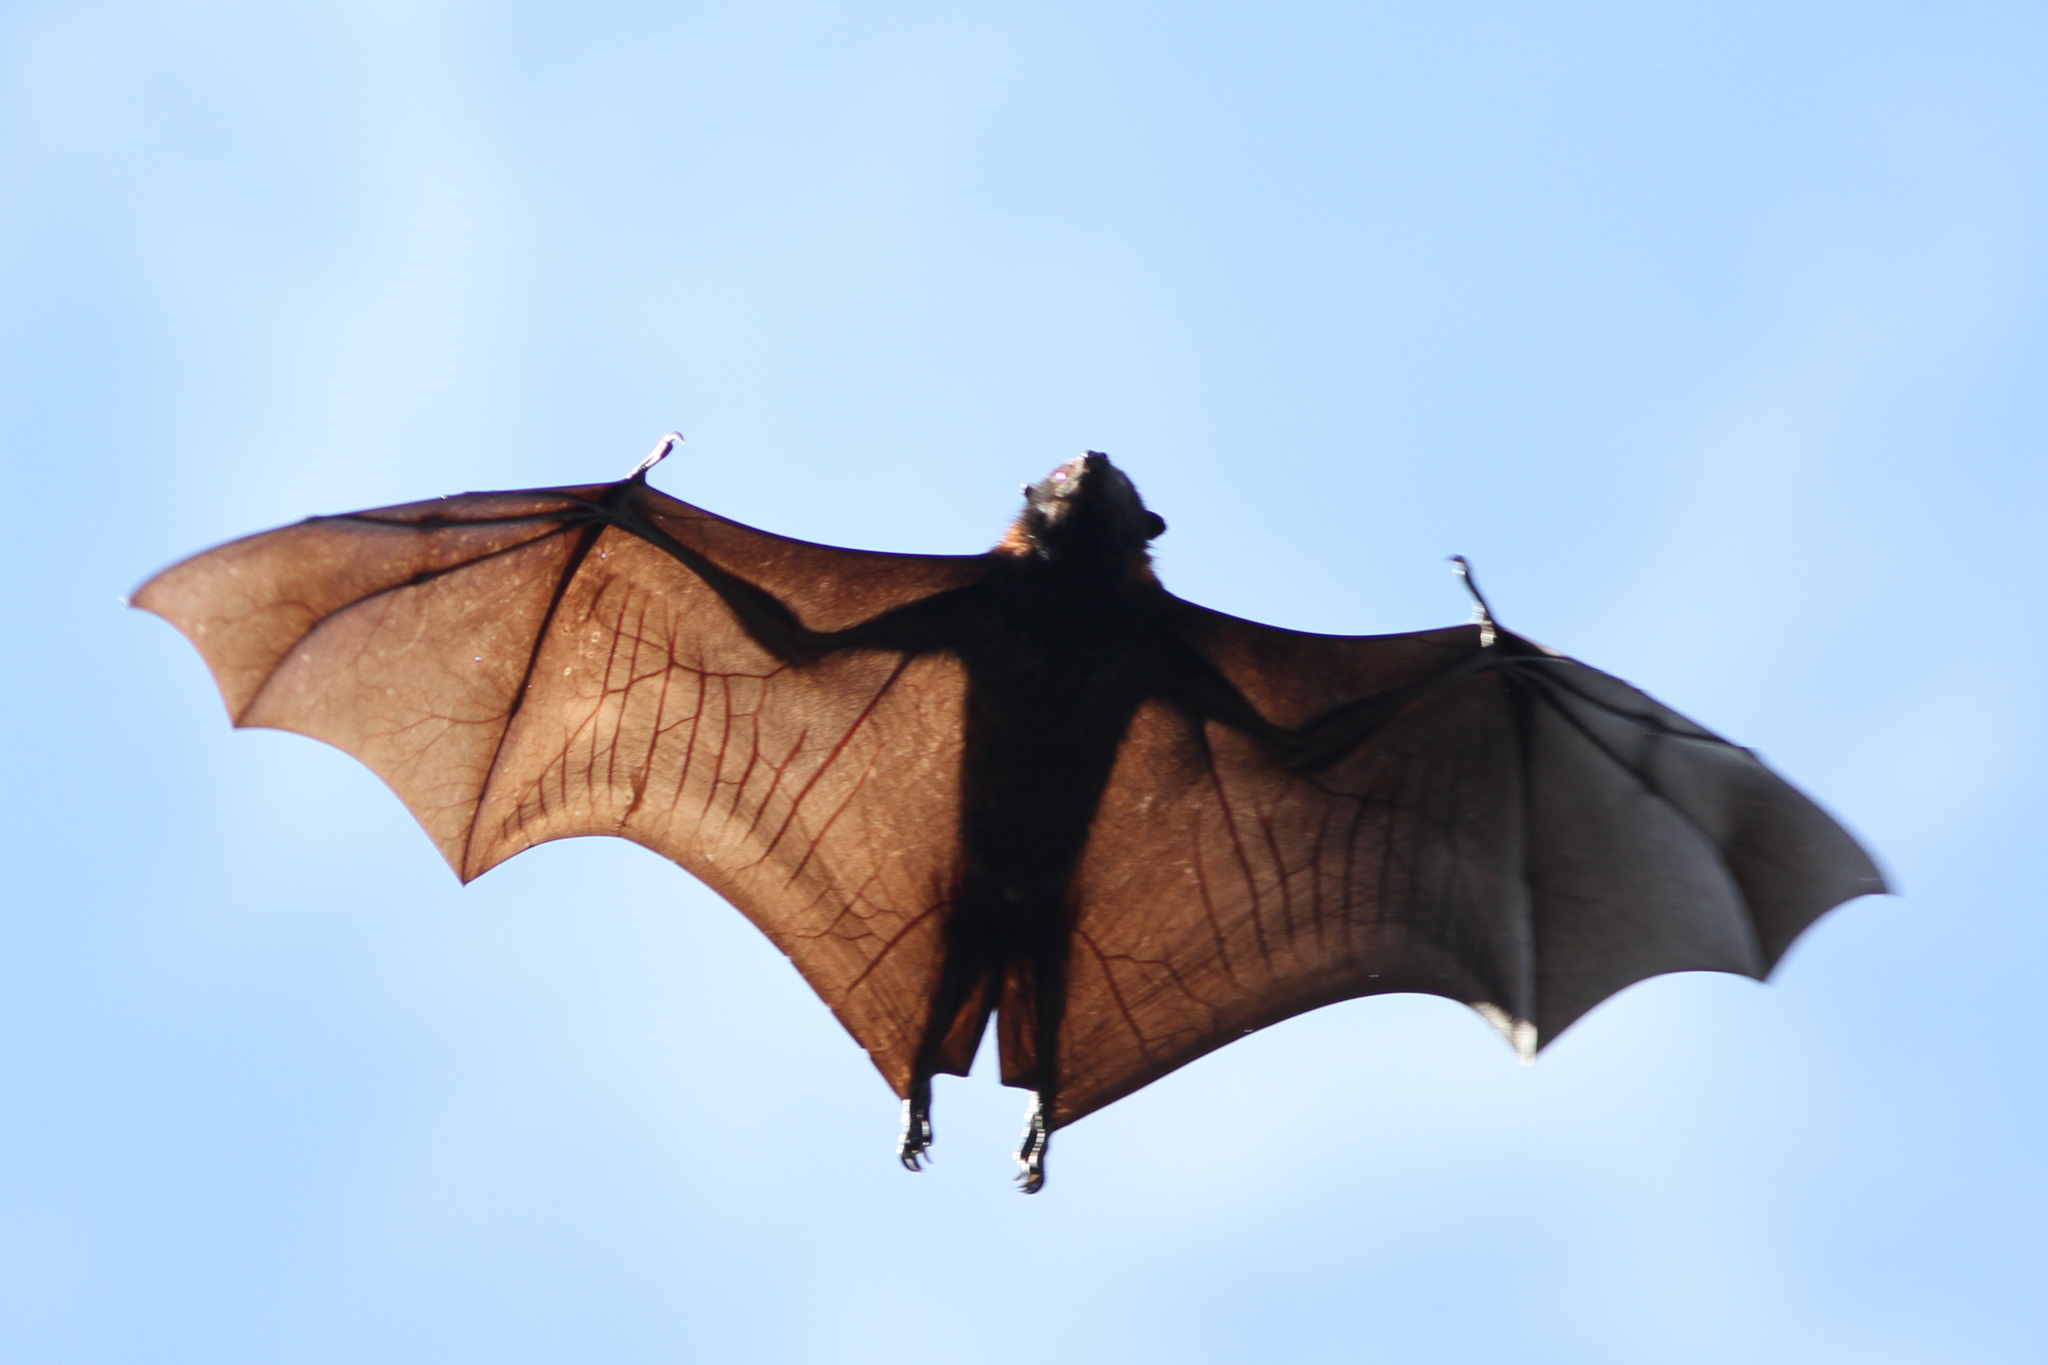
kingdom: Animalia
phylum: Chordata
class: Mammalia
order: Chiroptera
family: Pteropodidae
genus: Pteropus
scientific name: Pteropus alecto
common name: Black flying fox
